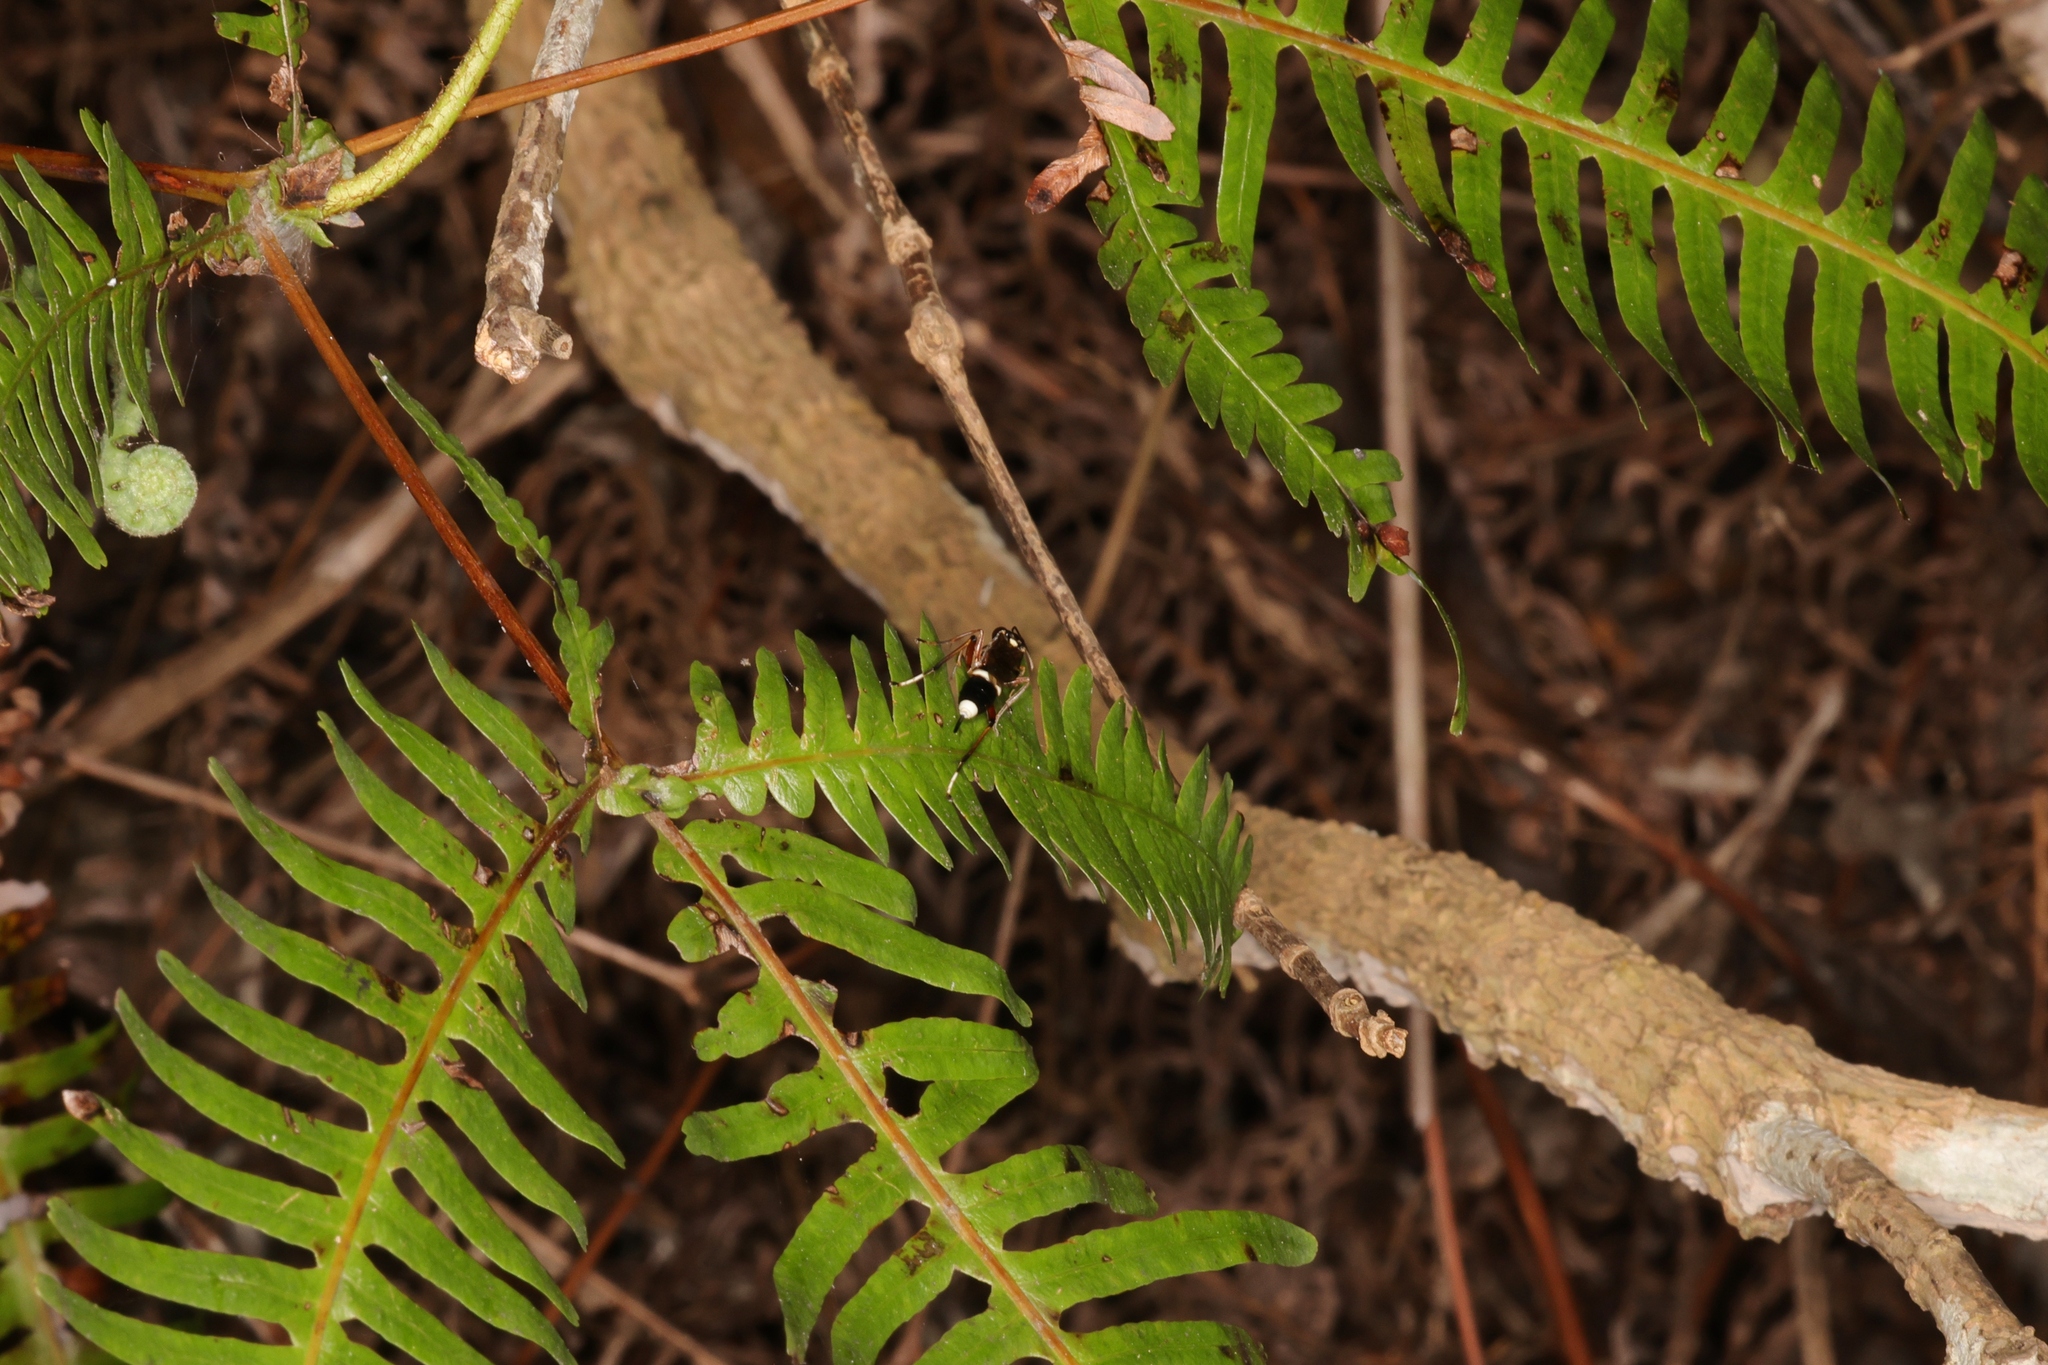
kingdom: Plantae
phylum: Tracheophyta
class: Polypodiopsida
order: Gleicheniales
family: Gleicheniaceae
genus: Dicranopteris
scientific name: Dicranopteris pedata
